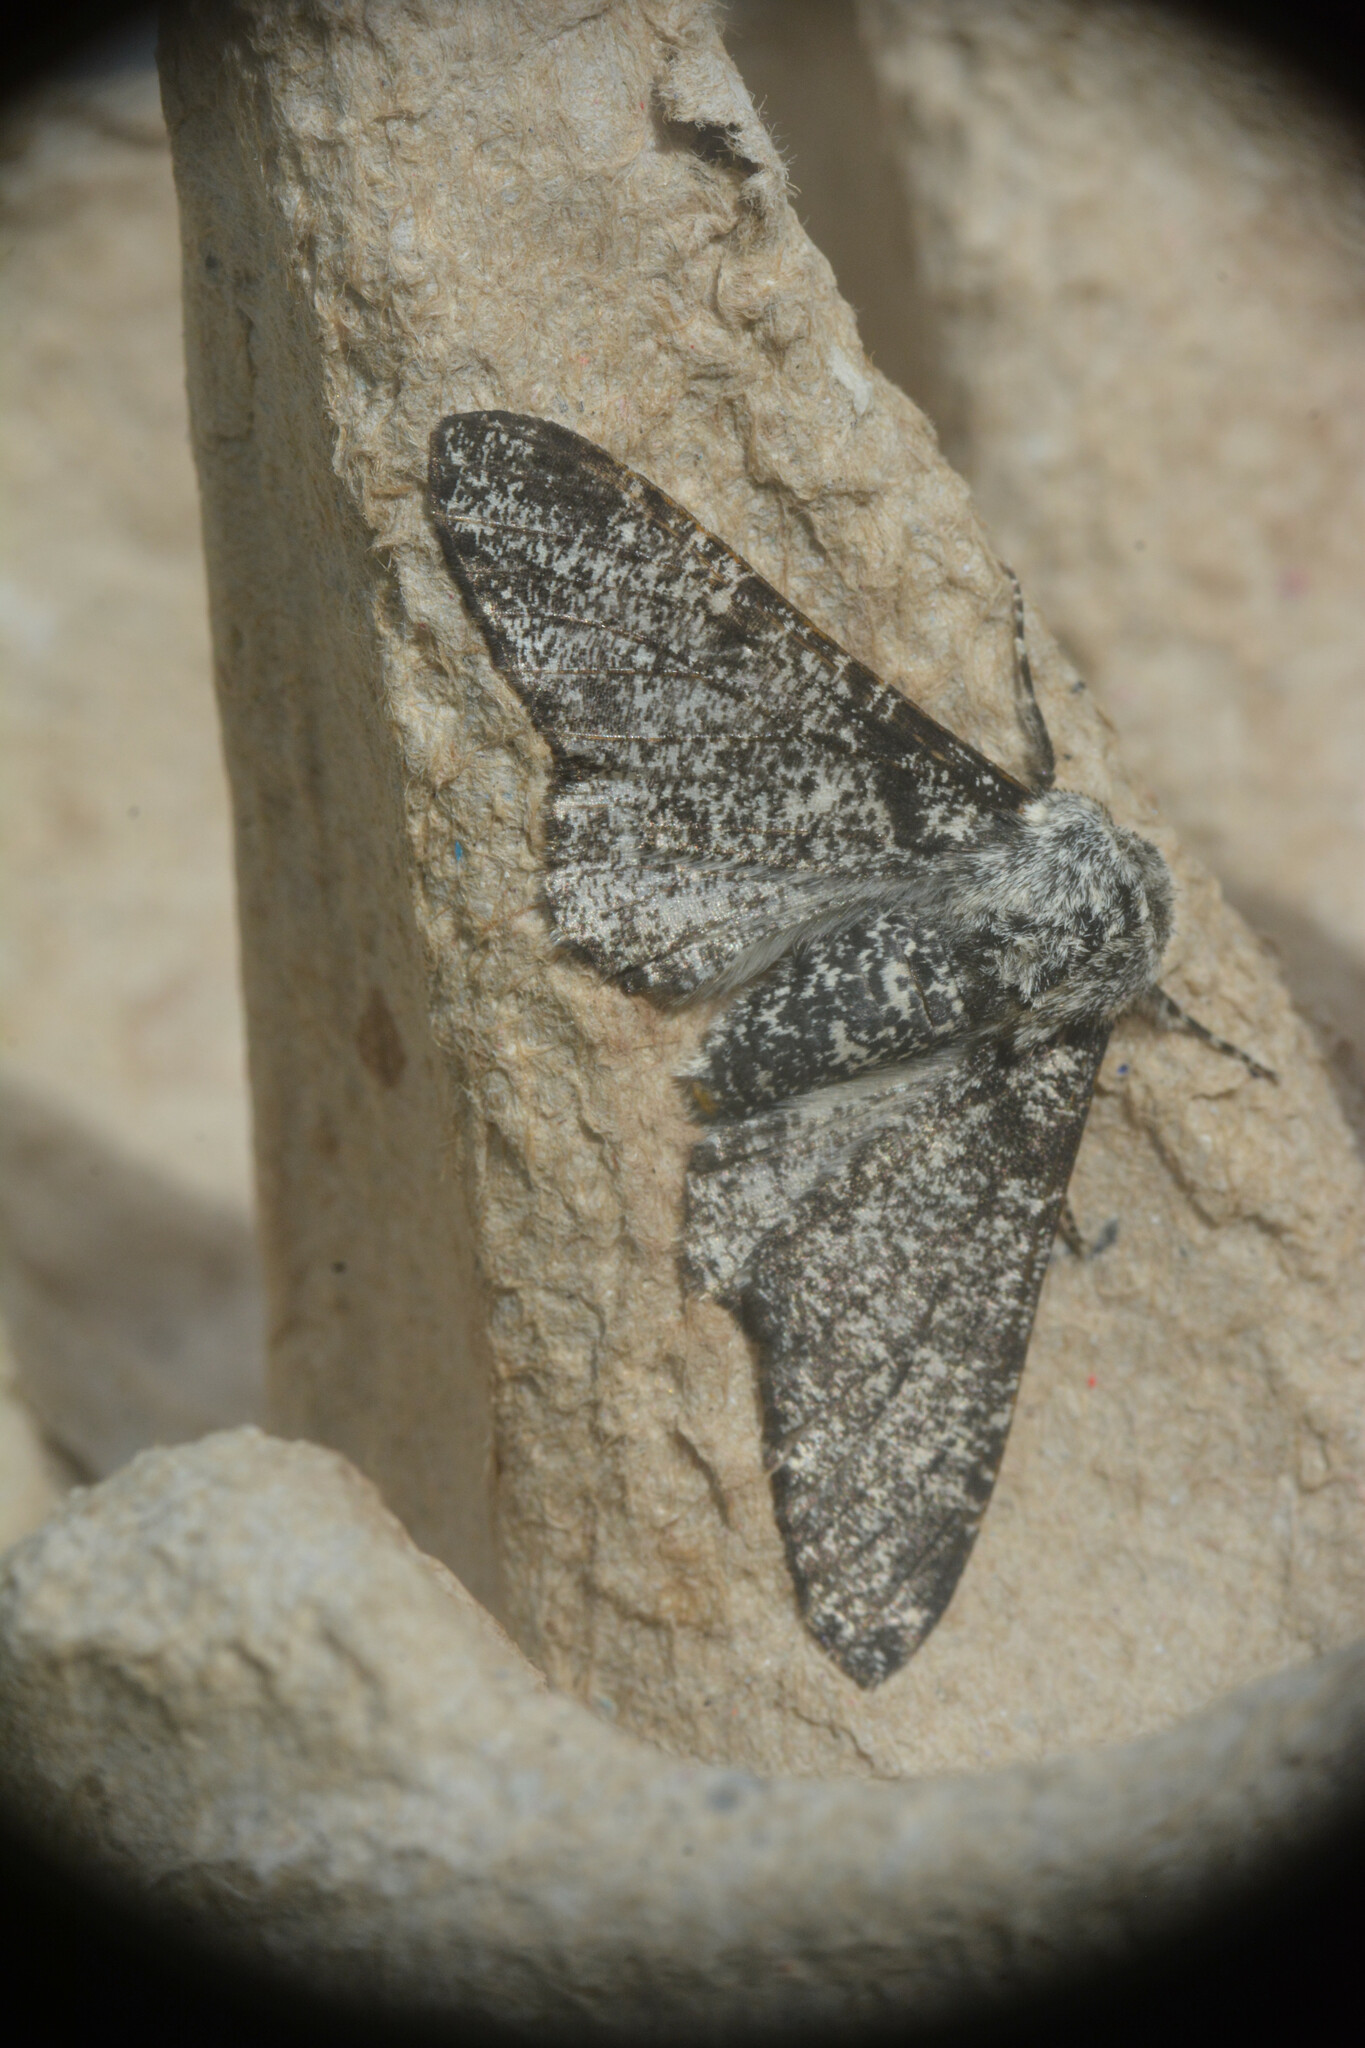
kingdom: Animalia
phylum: Arthropoda
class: Insecta
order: Lepidoptera
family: Geometridae
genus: Biston
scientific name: Biston betularia
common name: Peppered moth
